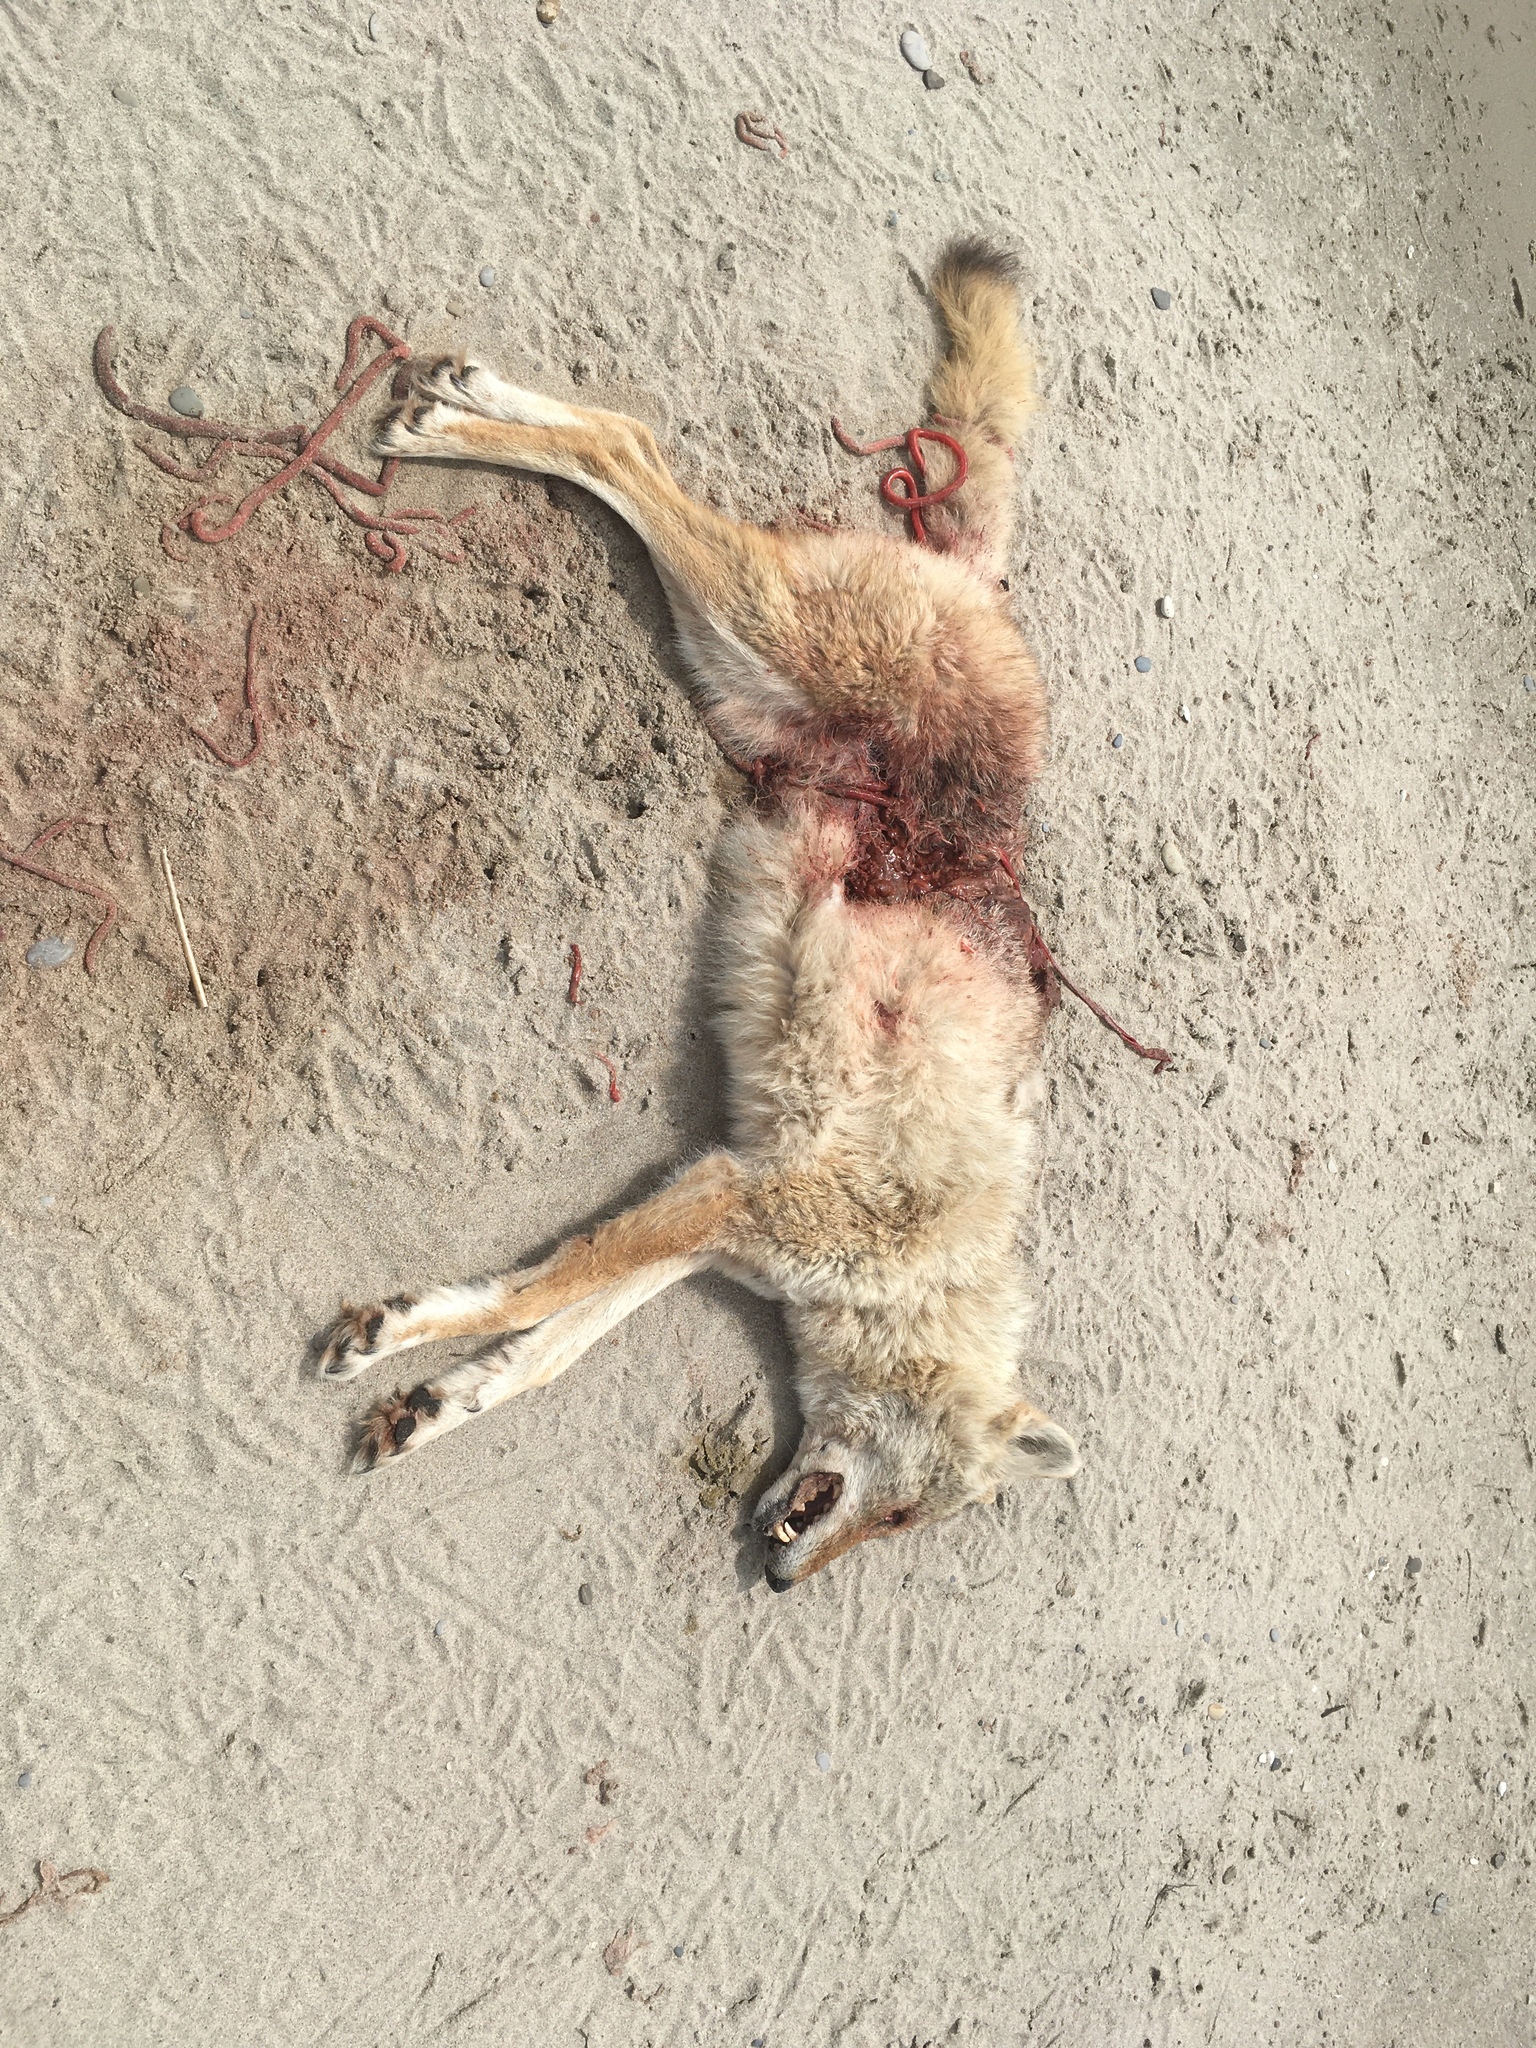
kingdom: Animalia
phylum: Chordata
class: Mammalia
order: Carnivora
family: Canidae
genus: Canis
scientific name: Canis latrans
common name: Coyote
